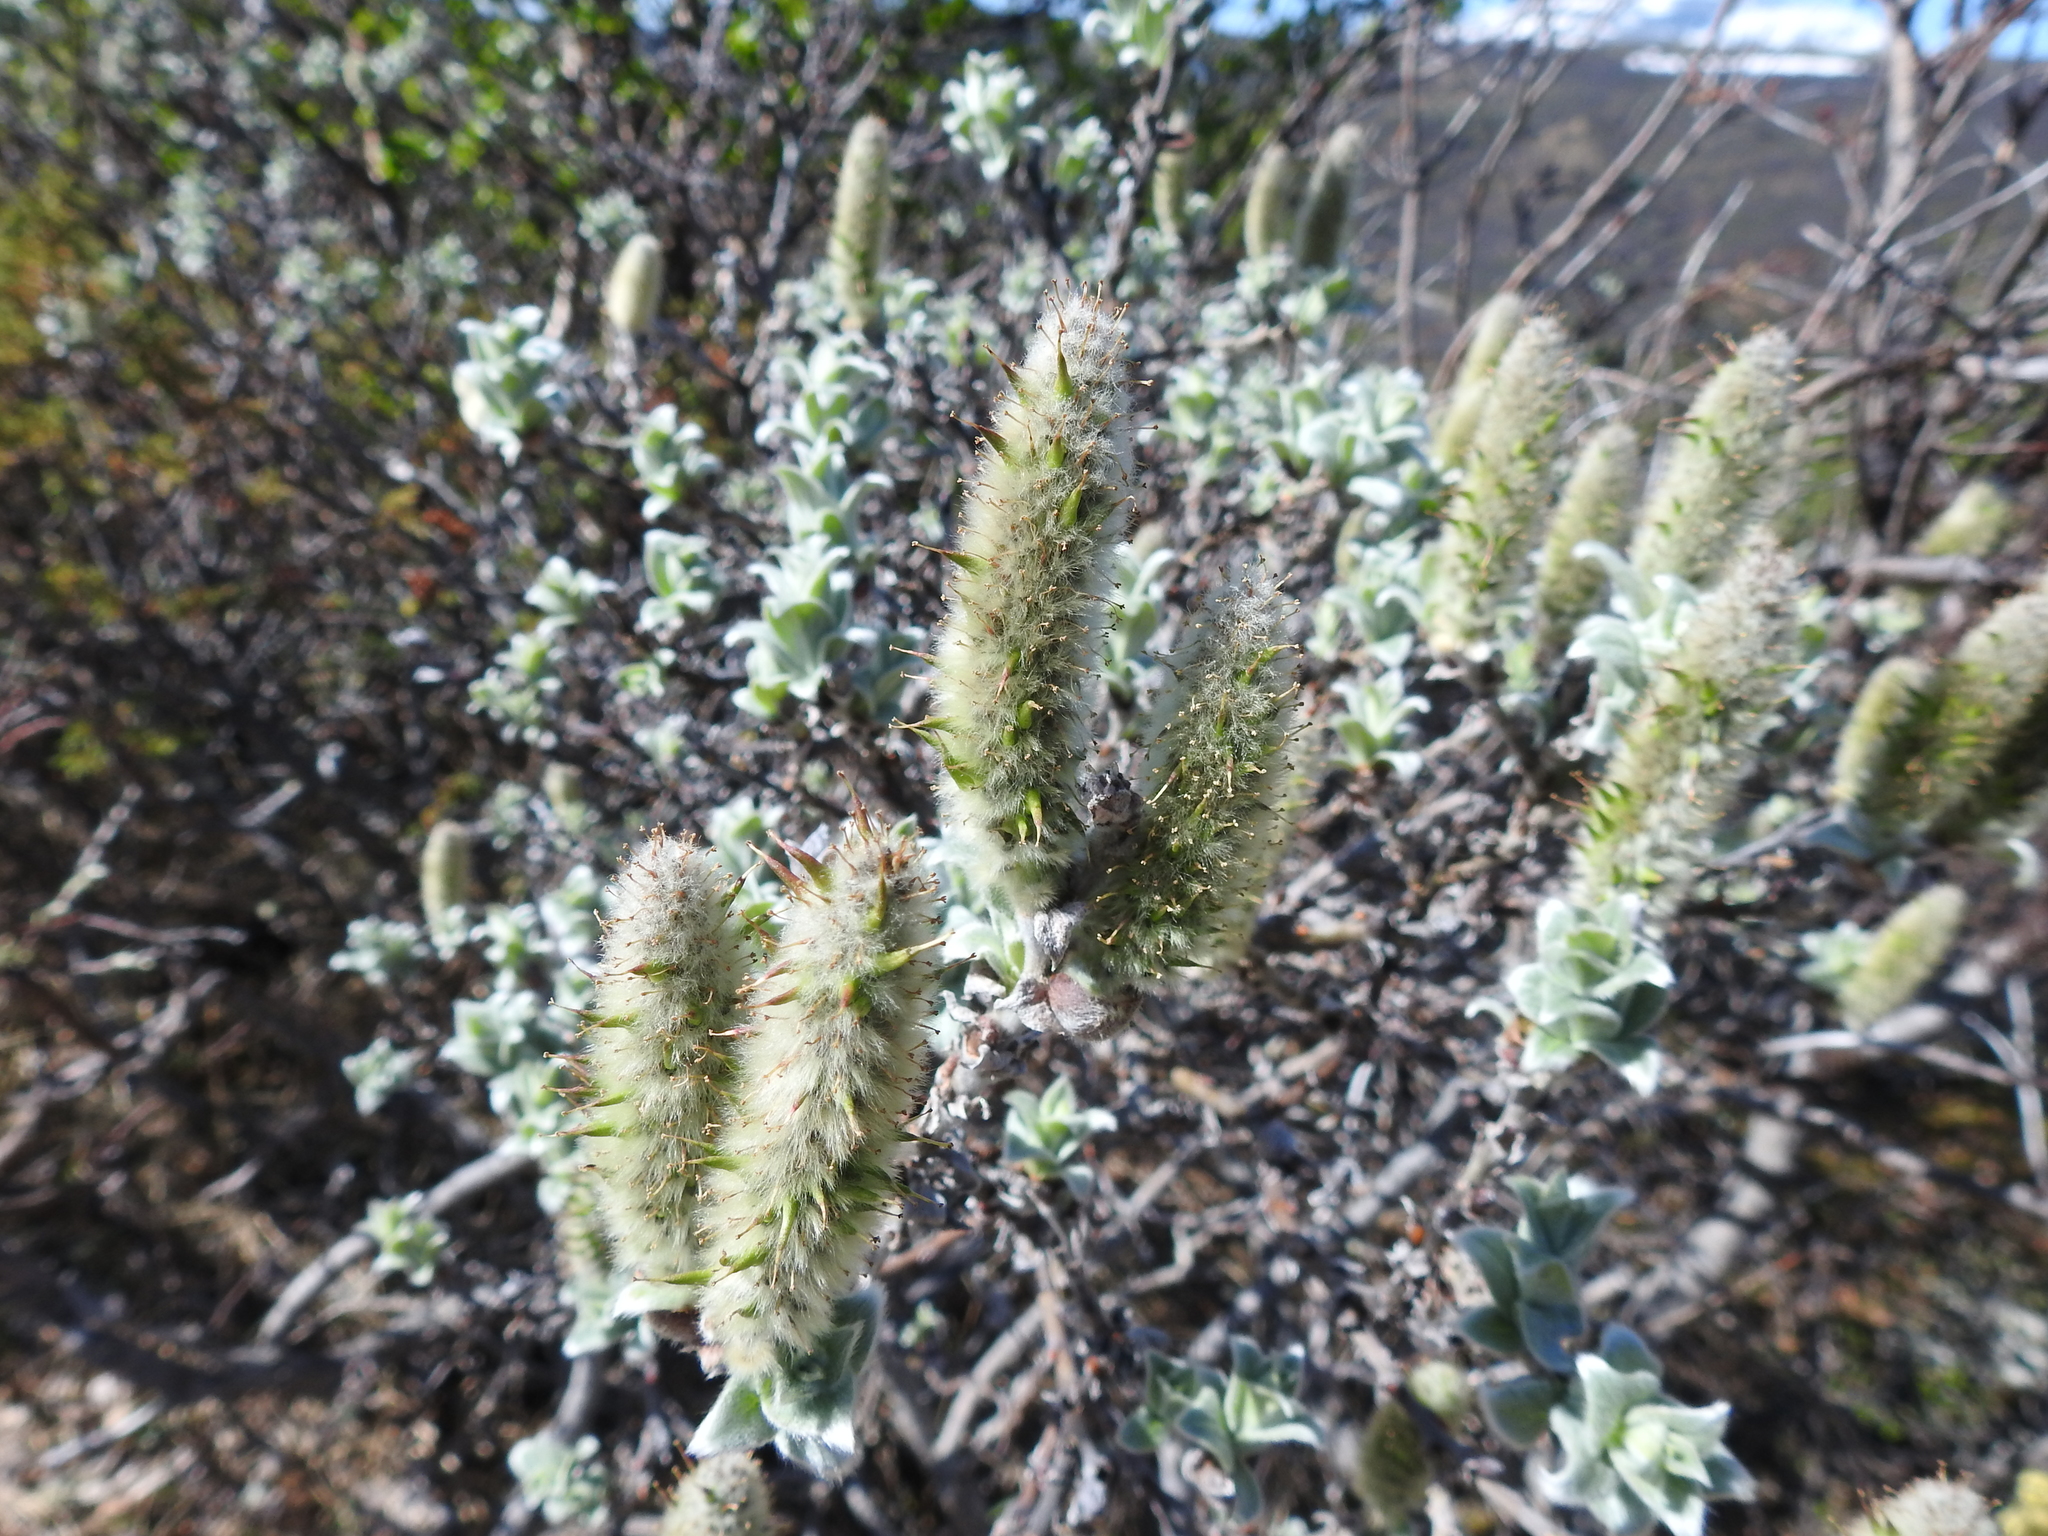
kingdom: Plantae
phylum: Tracheophyta
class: Magnoliopsida
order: Malpighiales
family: Salicaceae
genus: Salix
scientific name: Salix lanata
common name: Woolly willow
